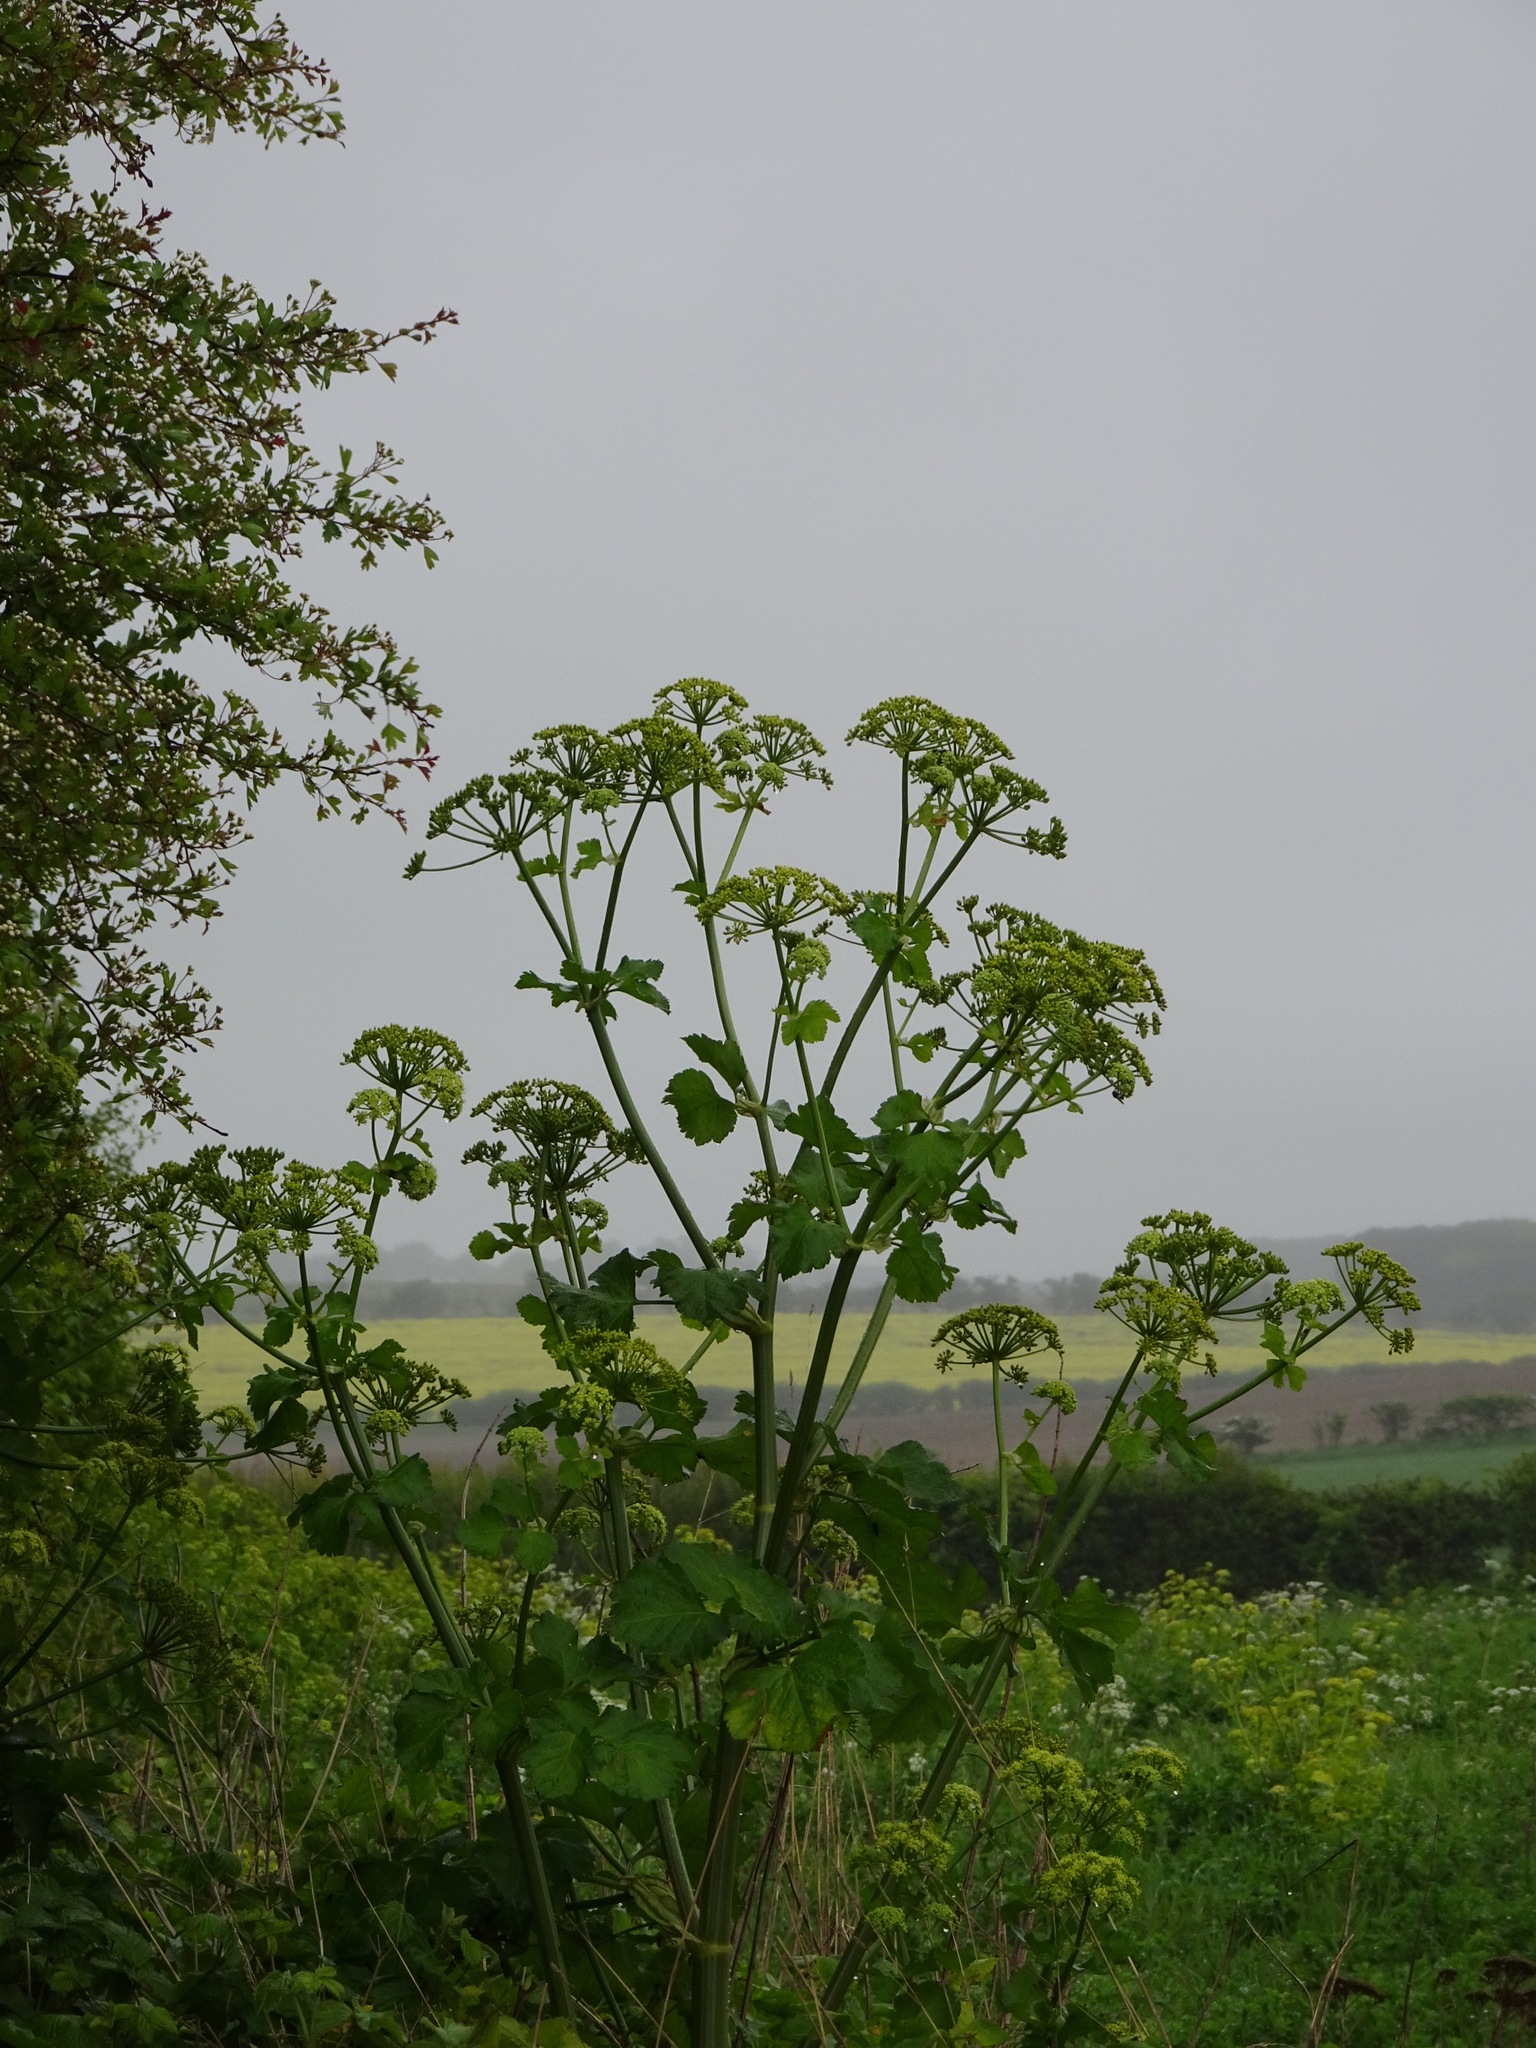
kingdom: Plantae
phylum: Tracheophyta
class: Magnoliopsida
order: Apiales
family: Apiaceae
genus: Smyrnium
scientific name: Smyrnium olusatrum
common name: Alexanders
